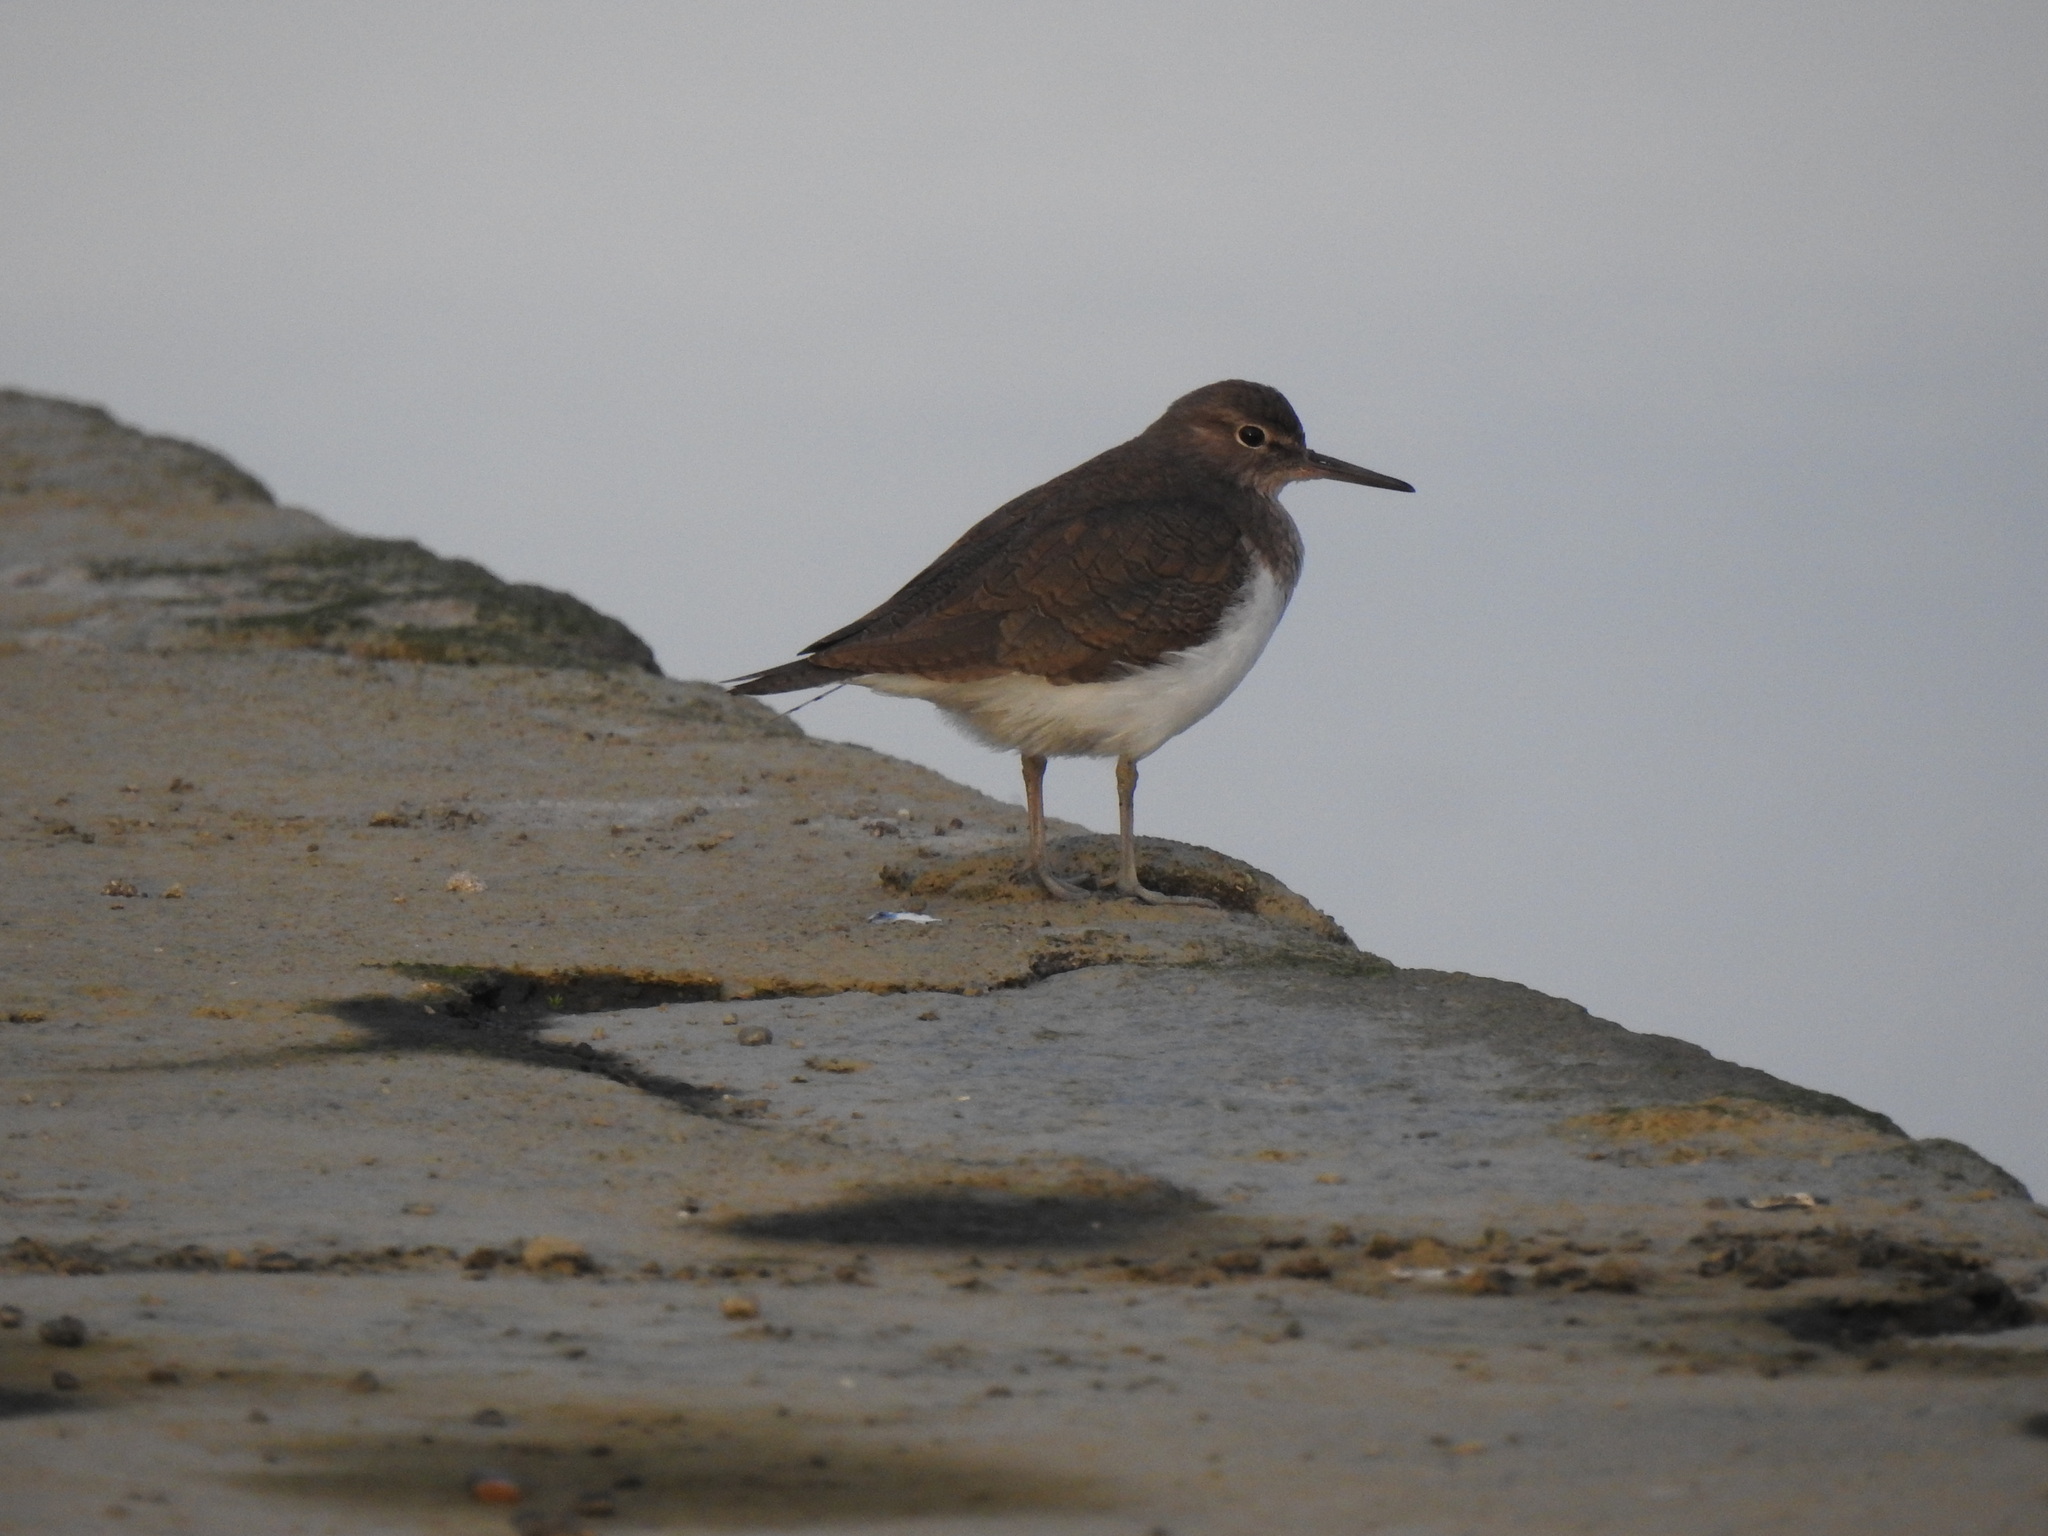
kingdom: Animalia
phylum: Chordata
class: Aves
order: Charadriiformes
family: Scolopacidae
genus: Actitis
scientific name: Actitis hypoleucos
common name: Common sandpiper
